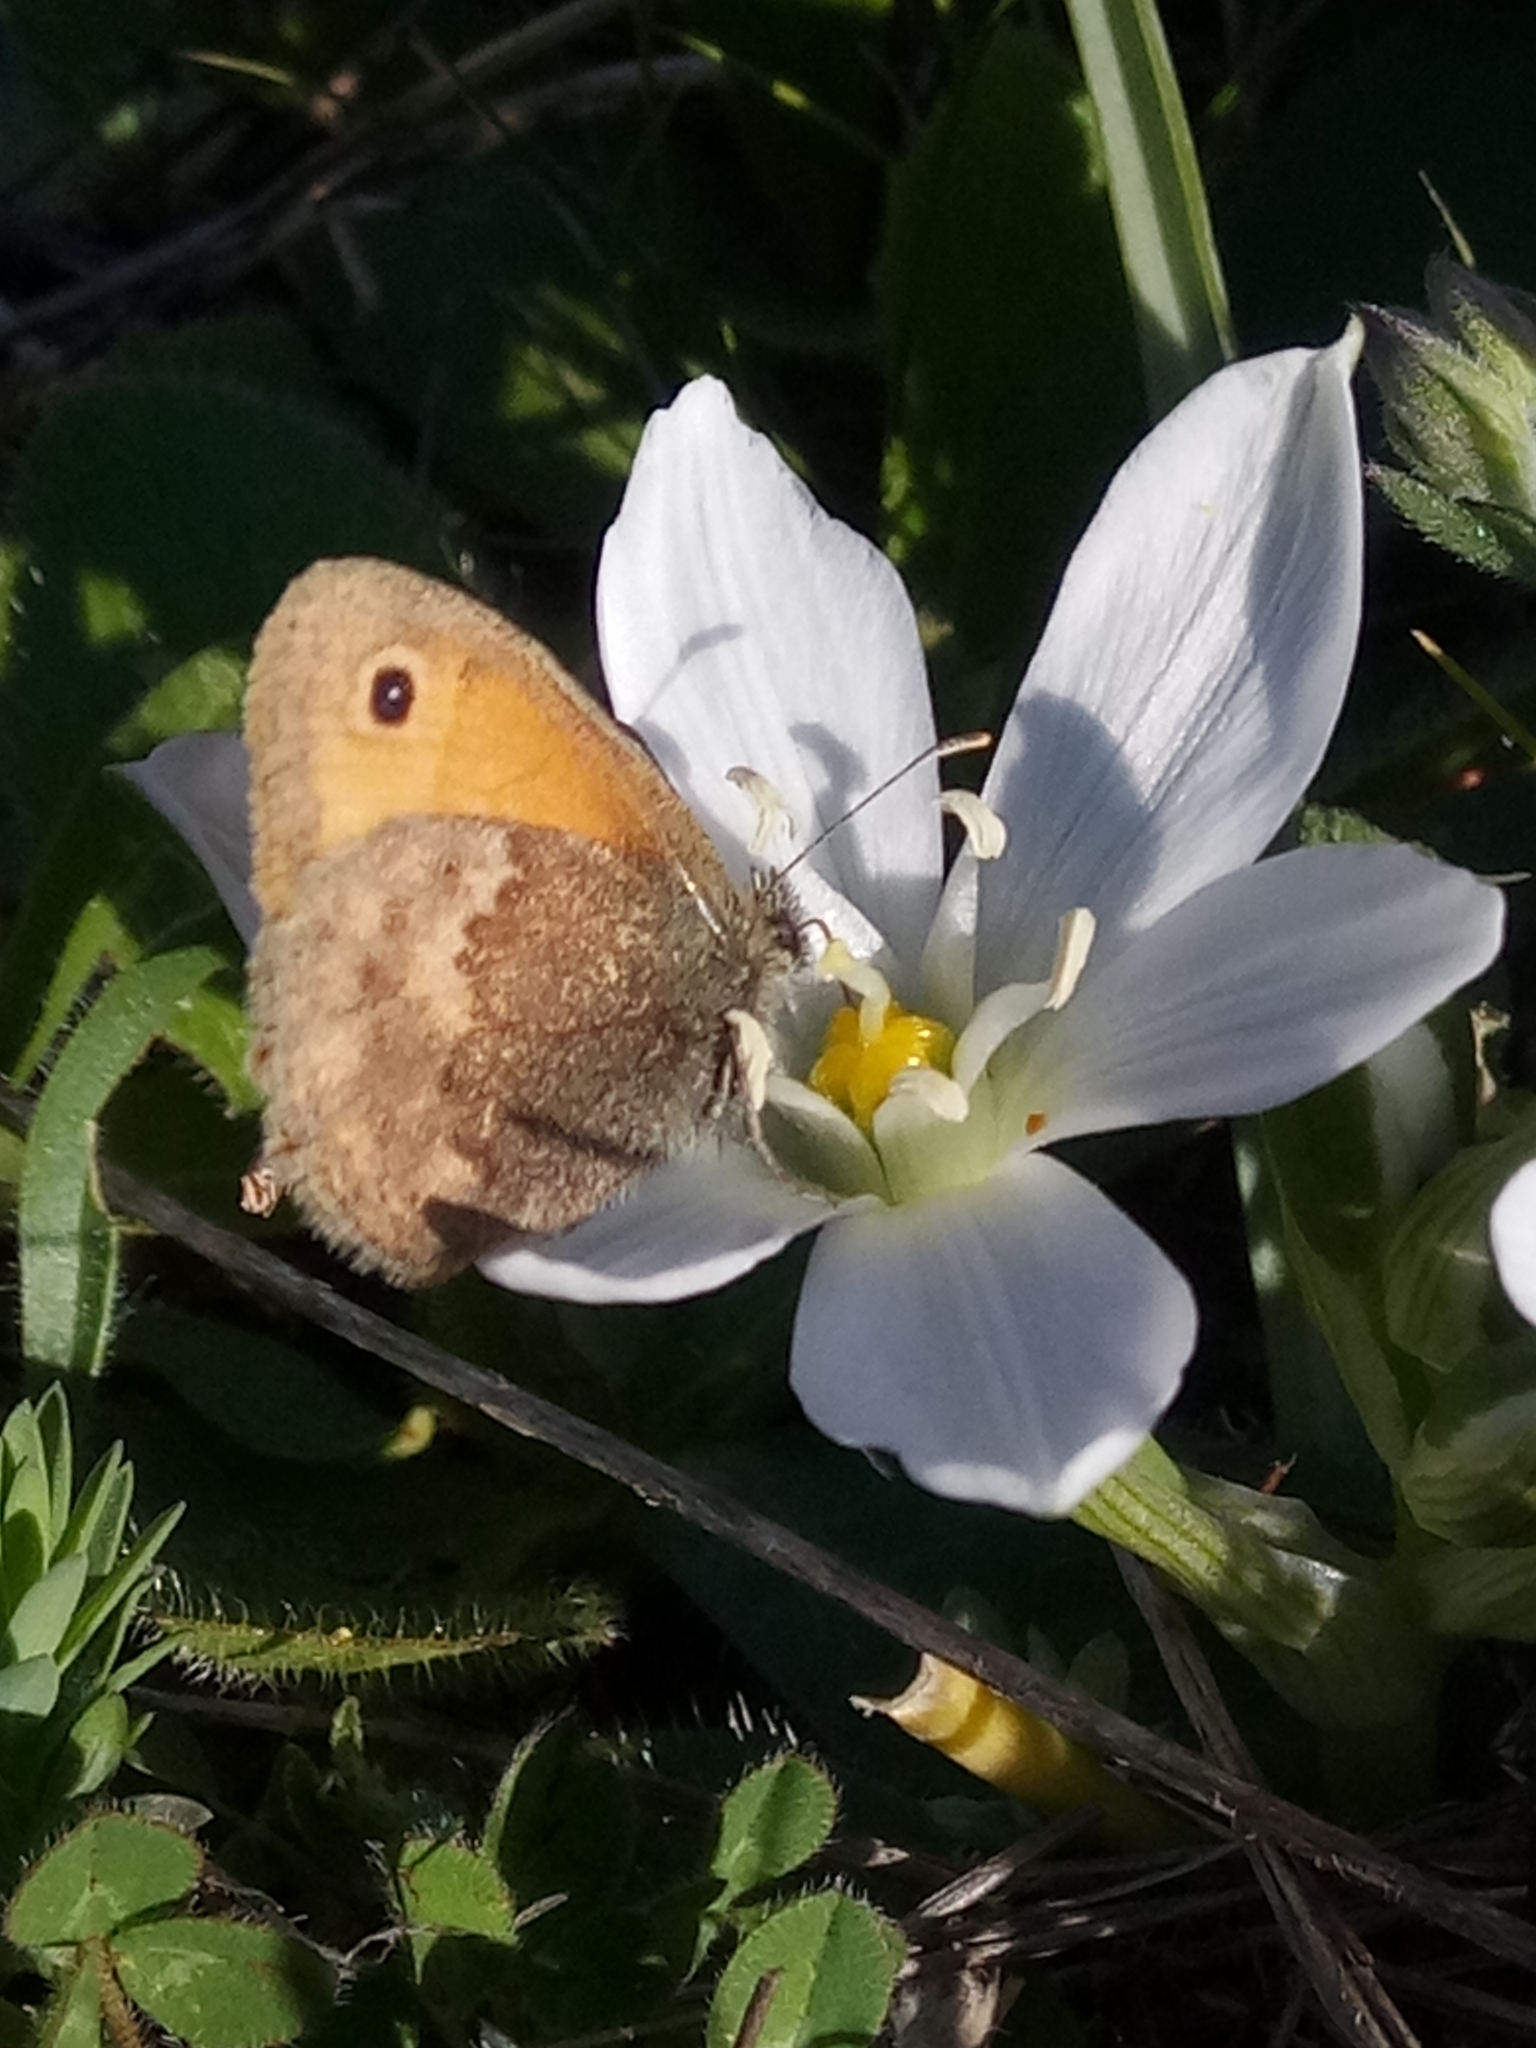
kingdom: Animalia
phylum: Arthropoda
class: Insecta
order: Lepidoptera
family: Nymphalidae
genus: Coenonympha
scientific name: Coenonympha pamphilus
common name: Small heath
